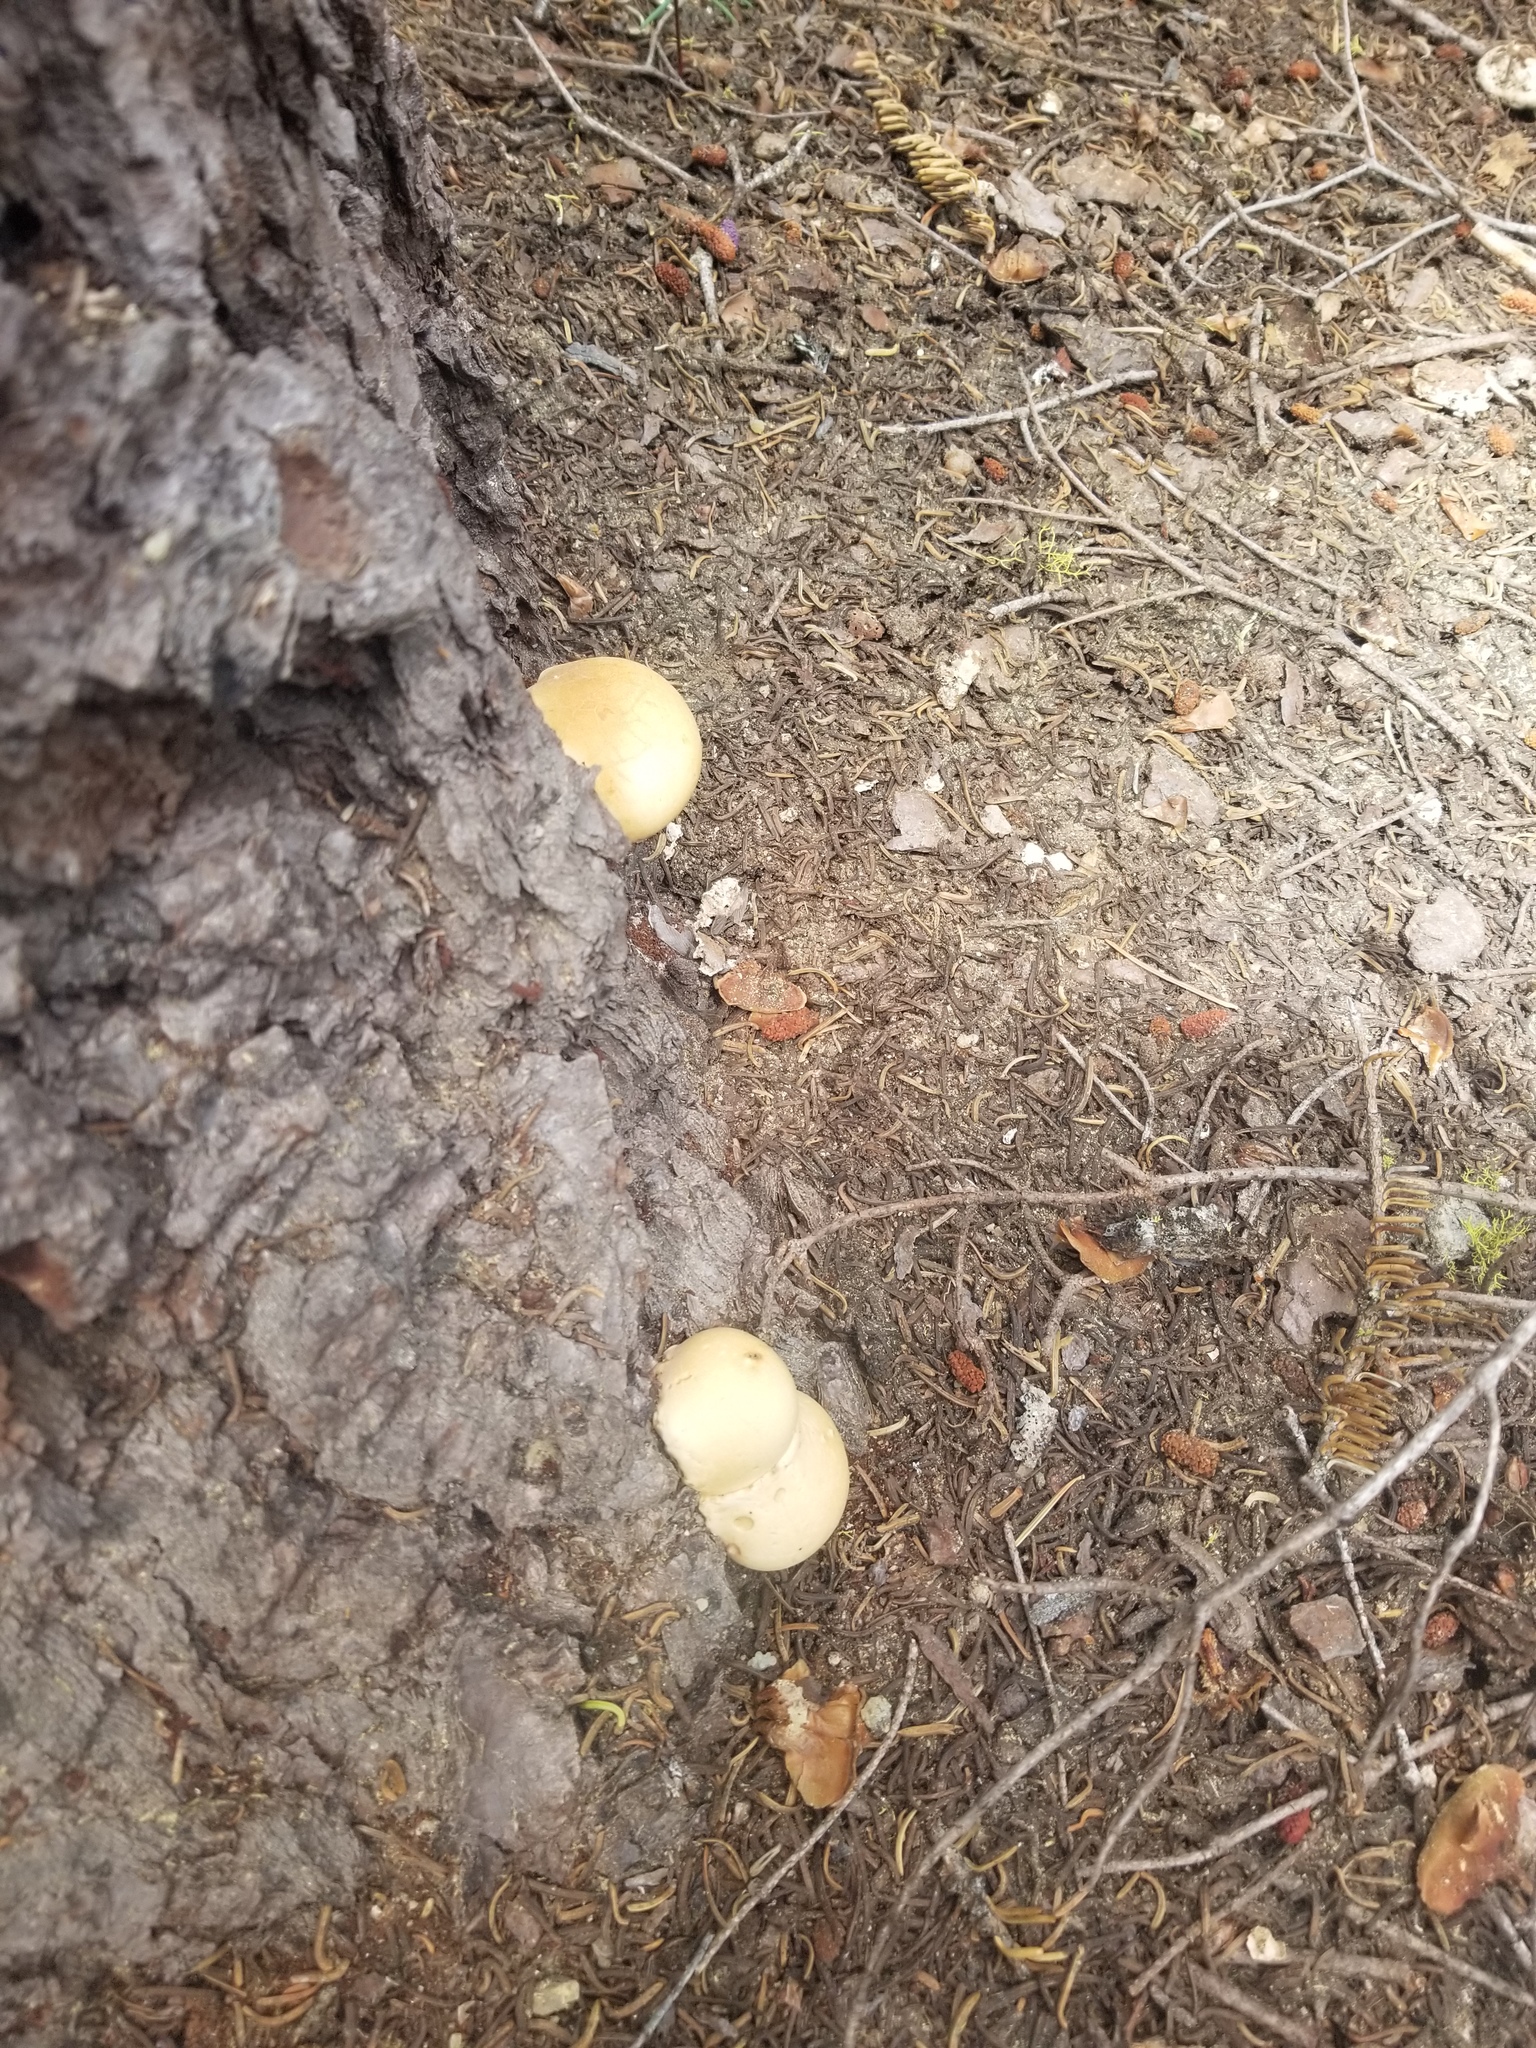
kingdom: Fungi
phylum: Basidiomycota
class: Agaricomycetes
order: Polyporales
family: Polyporaceae
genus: Cryptoporus
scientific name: Cryptoporus volvatus
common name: Veiled polypore
